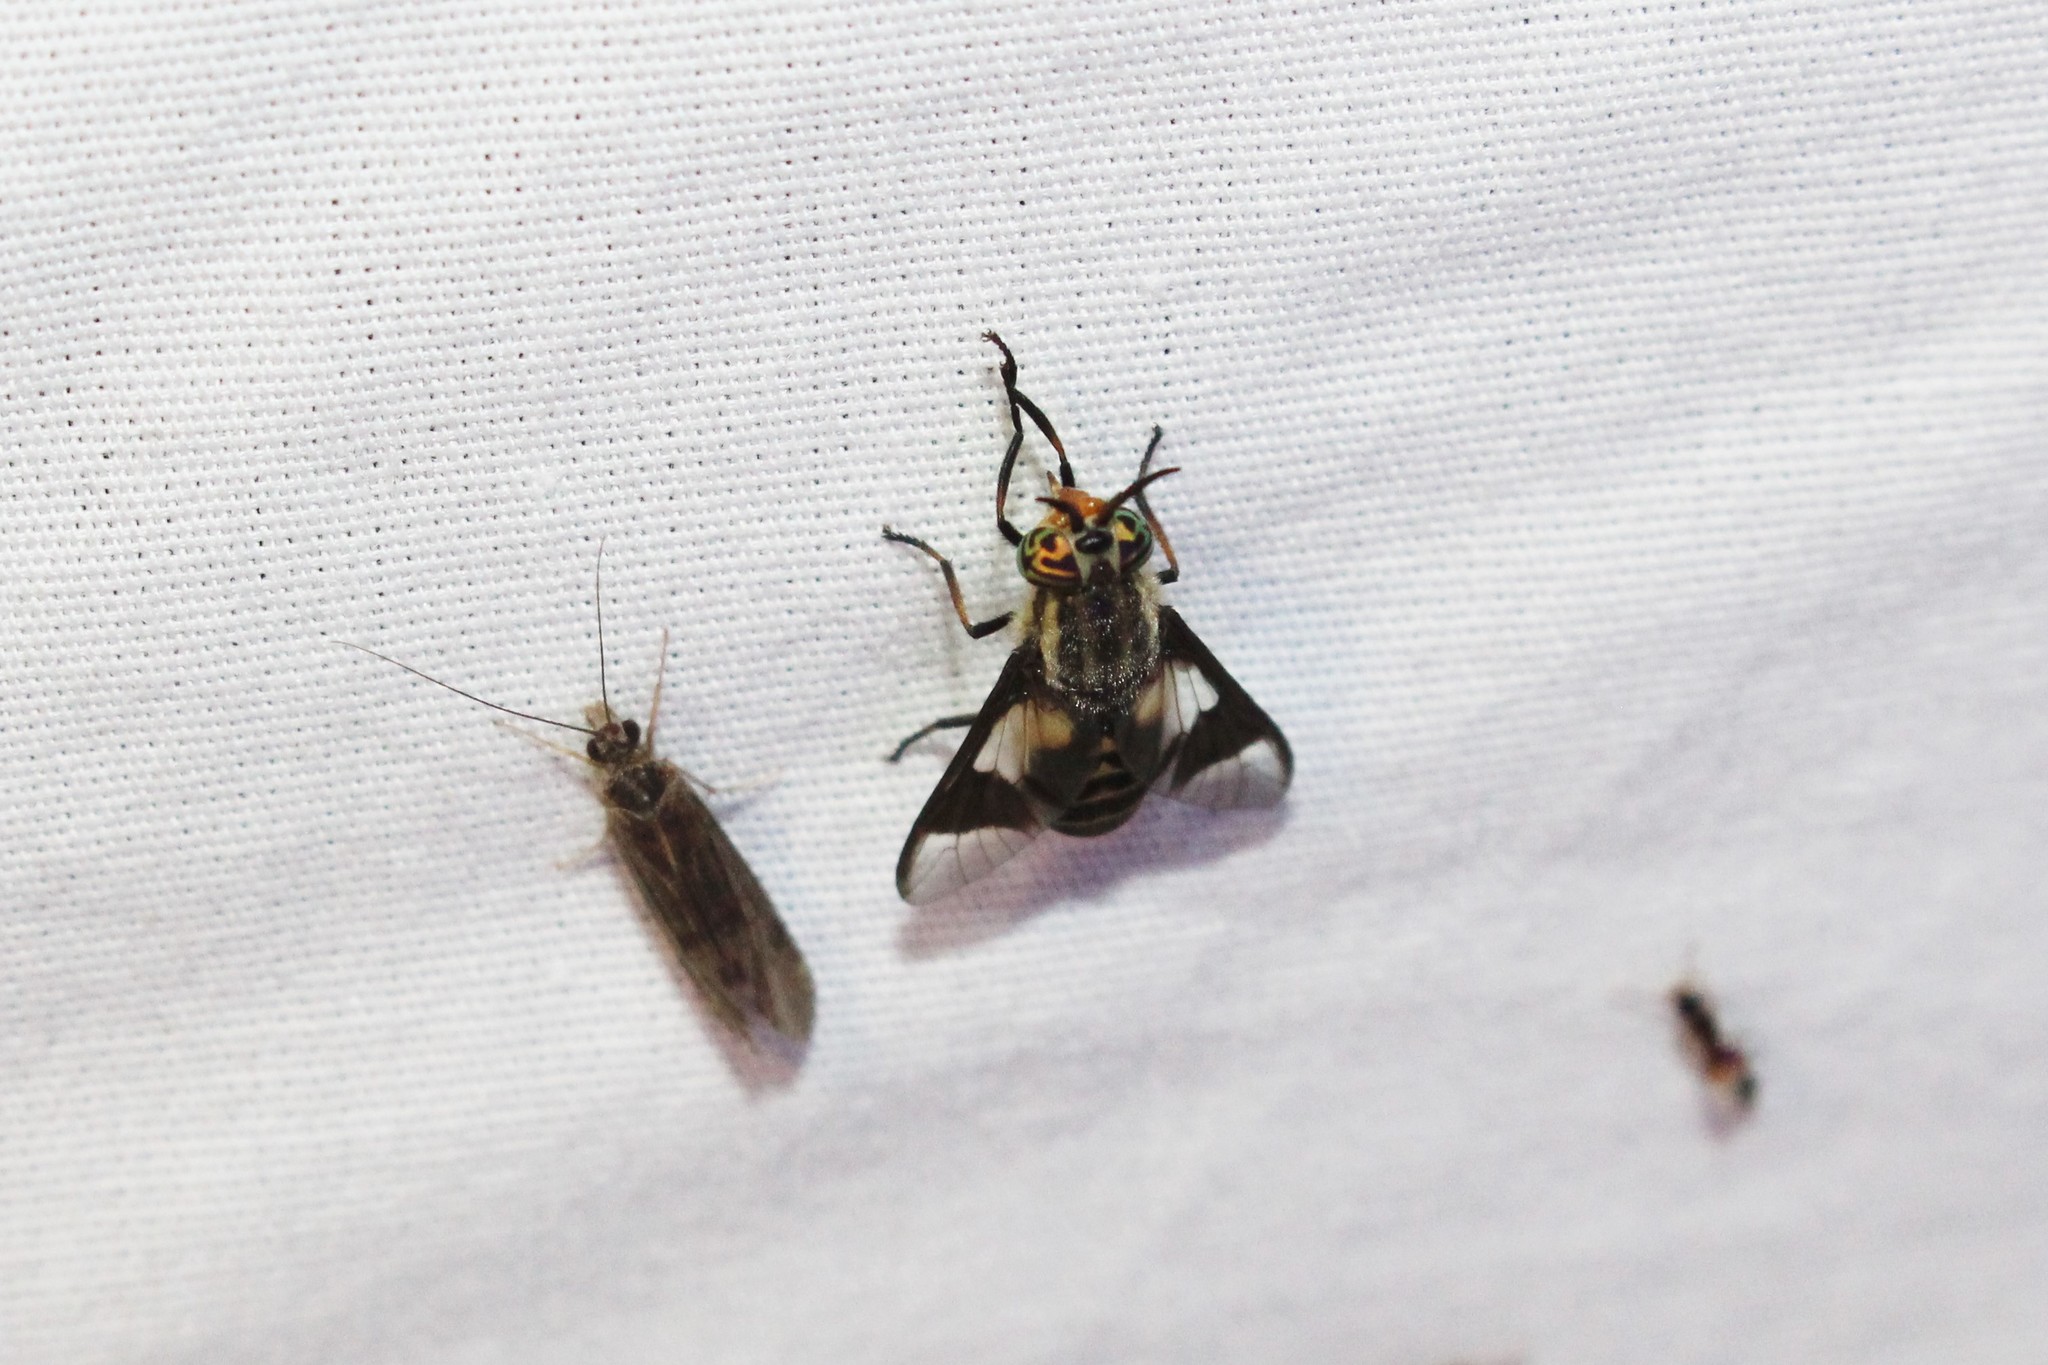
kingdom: Animalia
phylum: Arthropoda
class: Insecta
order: Diptera
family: Tabanidae
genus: Chrysops
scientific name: Chrysops callidus
